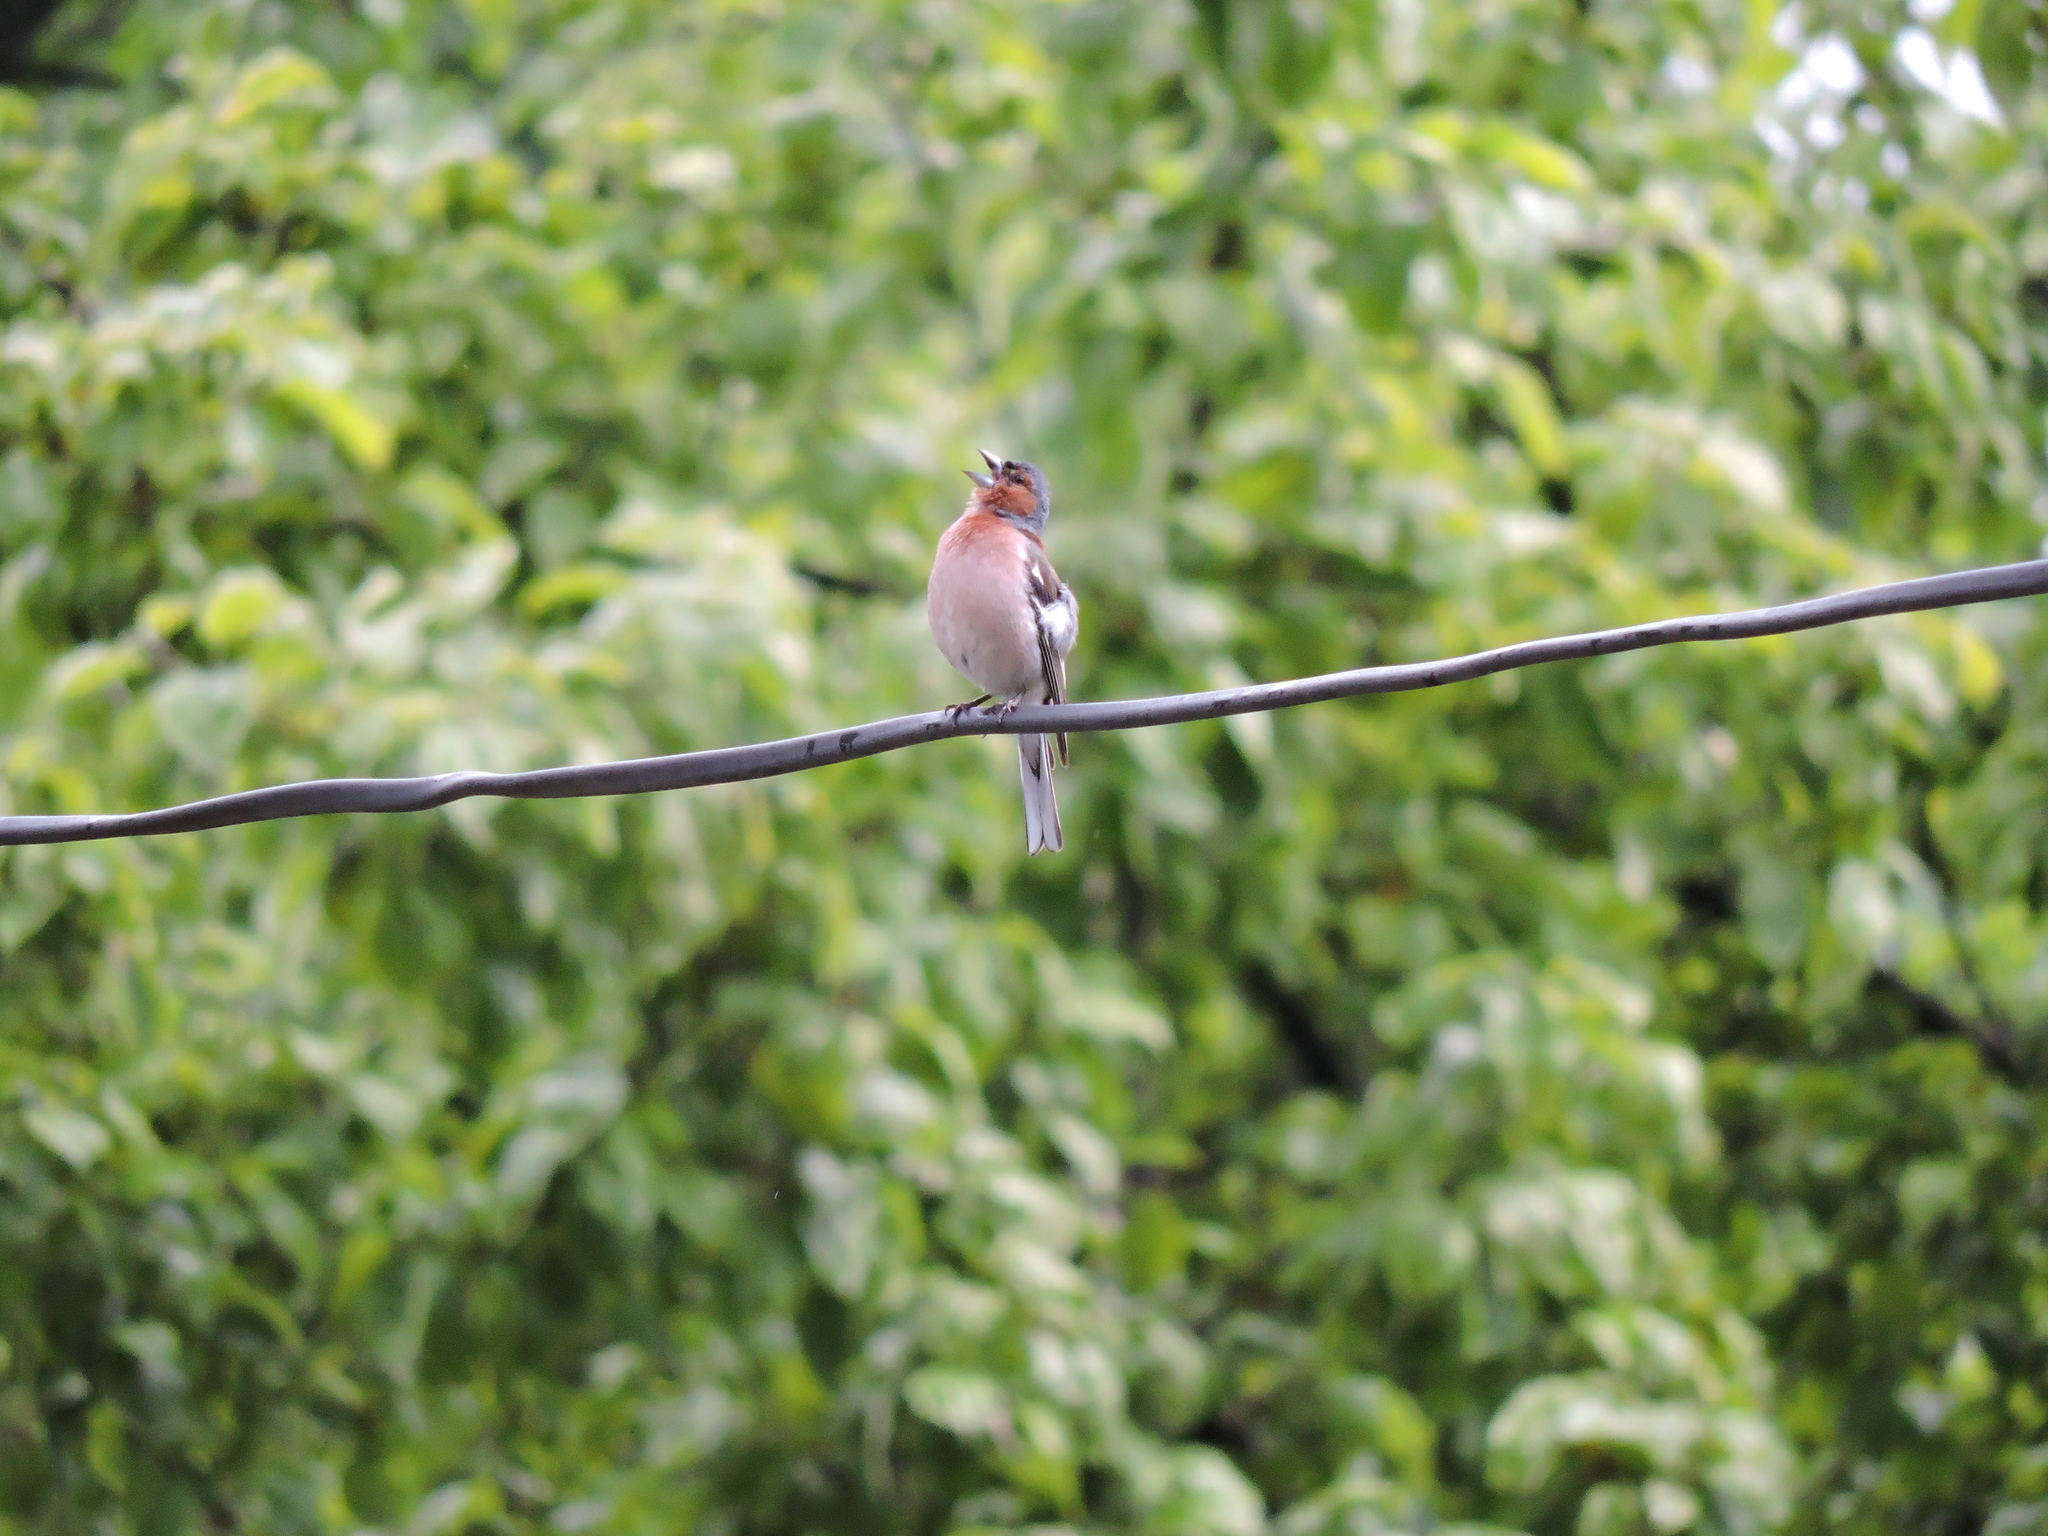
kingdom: Animalia
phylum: Chordata
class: Aves
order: Passeriformes
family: Fringillidae
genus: Fringilla
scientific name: Fringilla coelebs
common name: Common chaffinch
